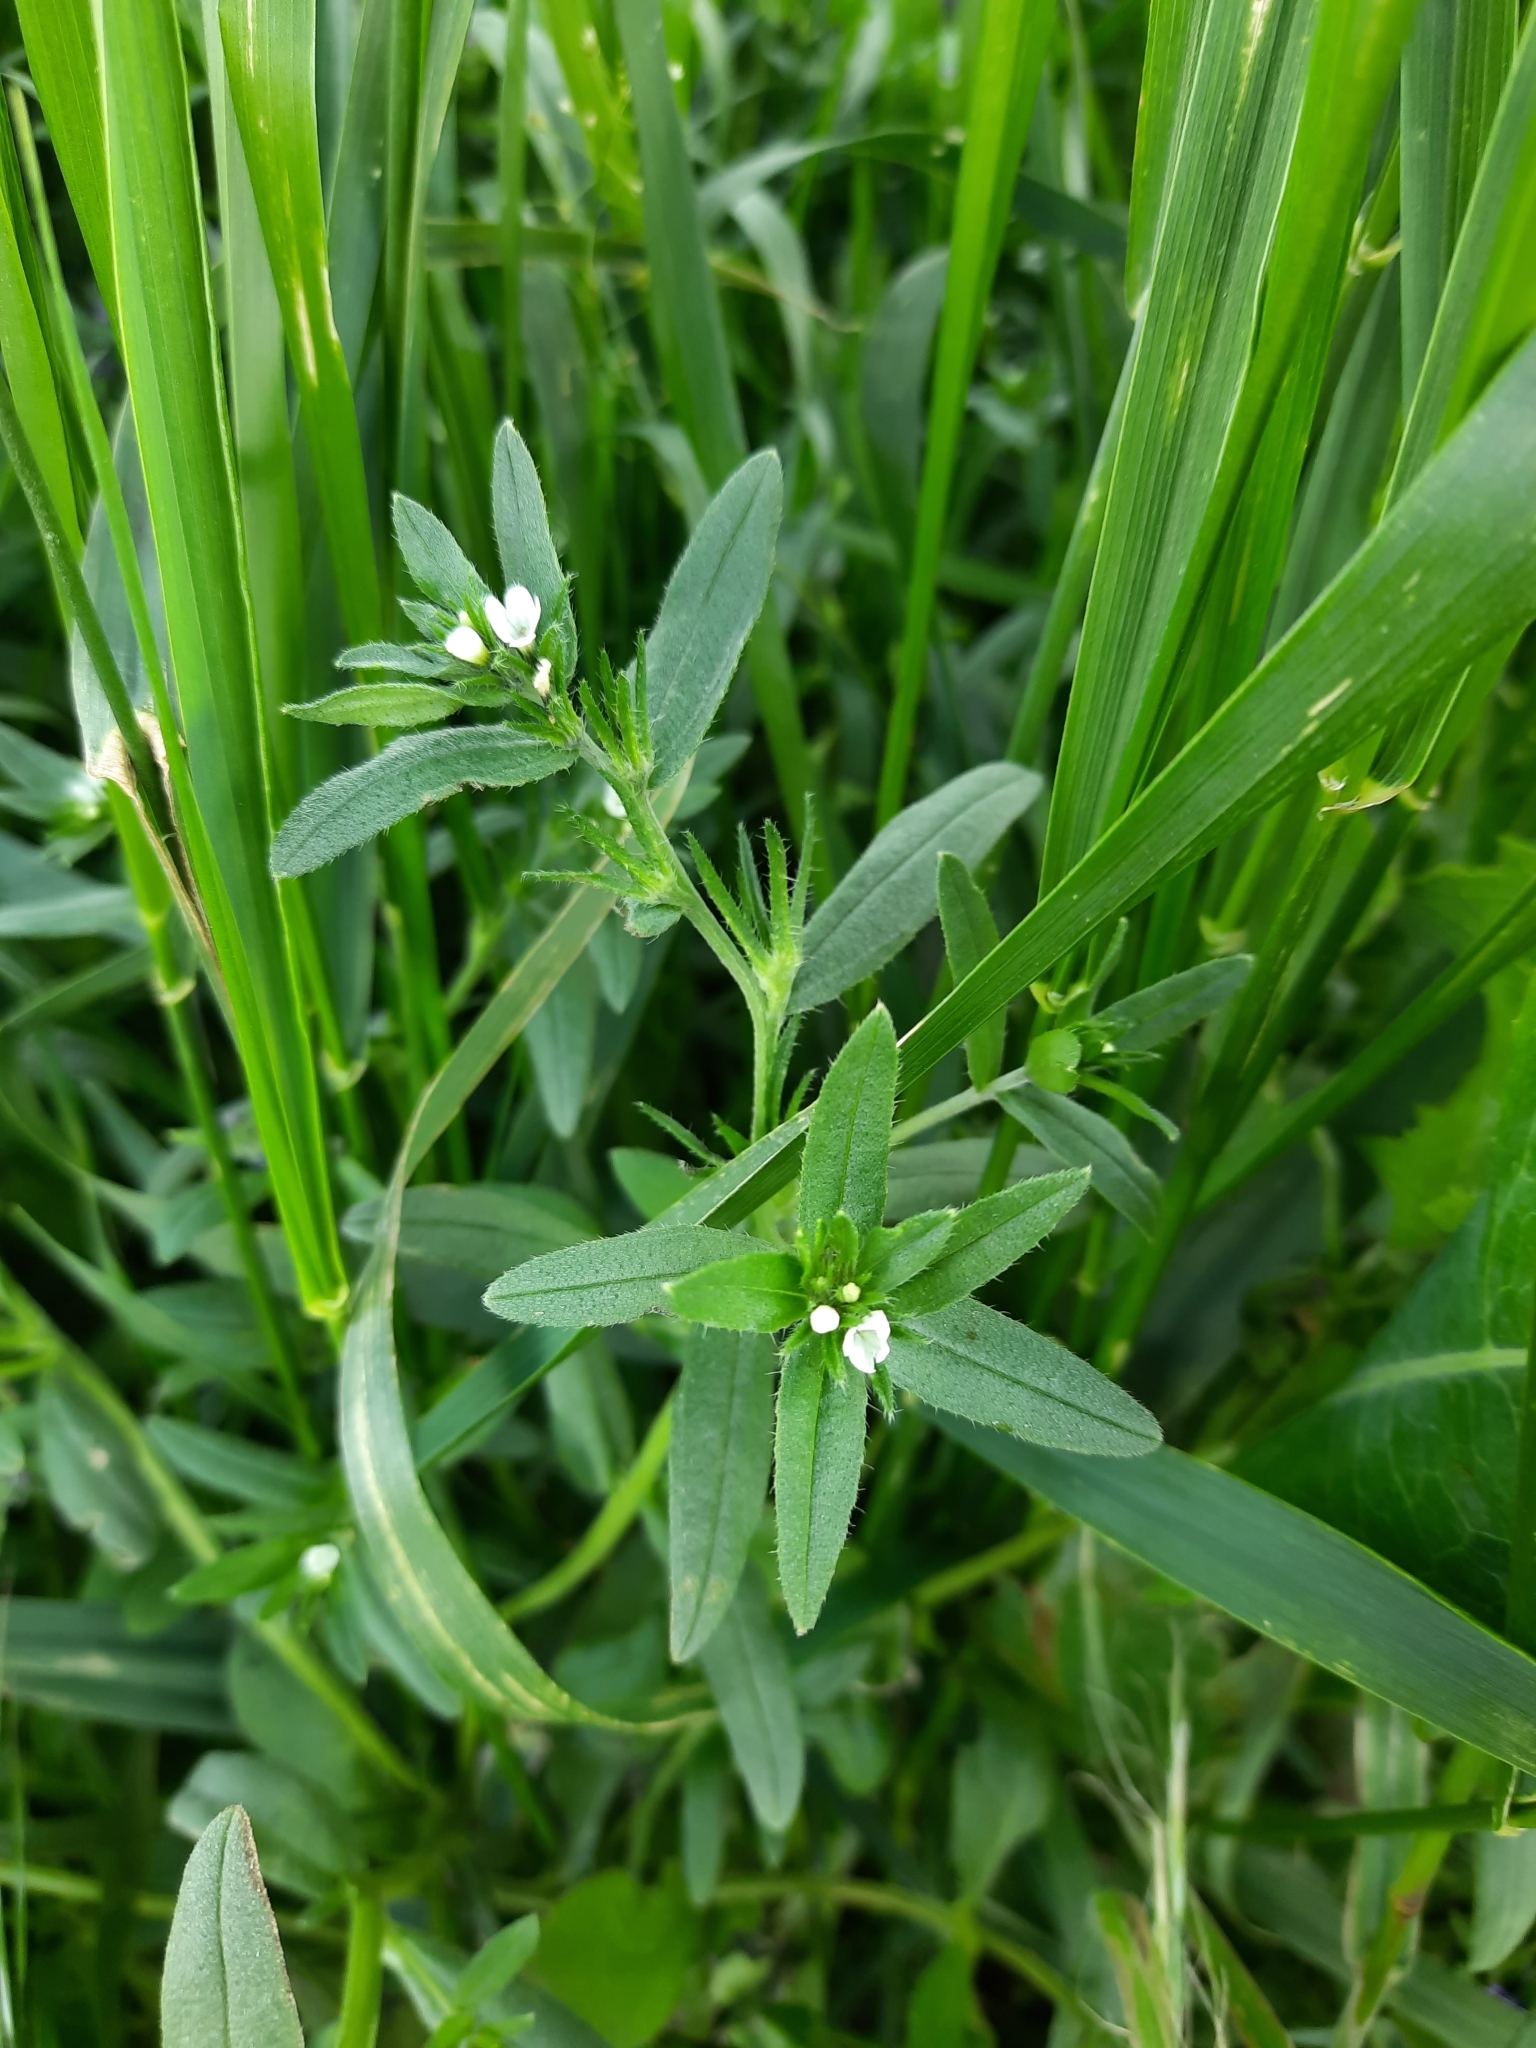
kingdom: Plantae
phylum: Tracheophyta
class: Magnoliopsida
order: Boraginales
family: Boraginaceae
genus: Buglossoides
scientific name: Buglossoides arvensis
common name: Corn gromwell
